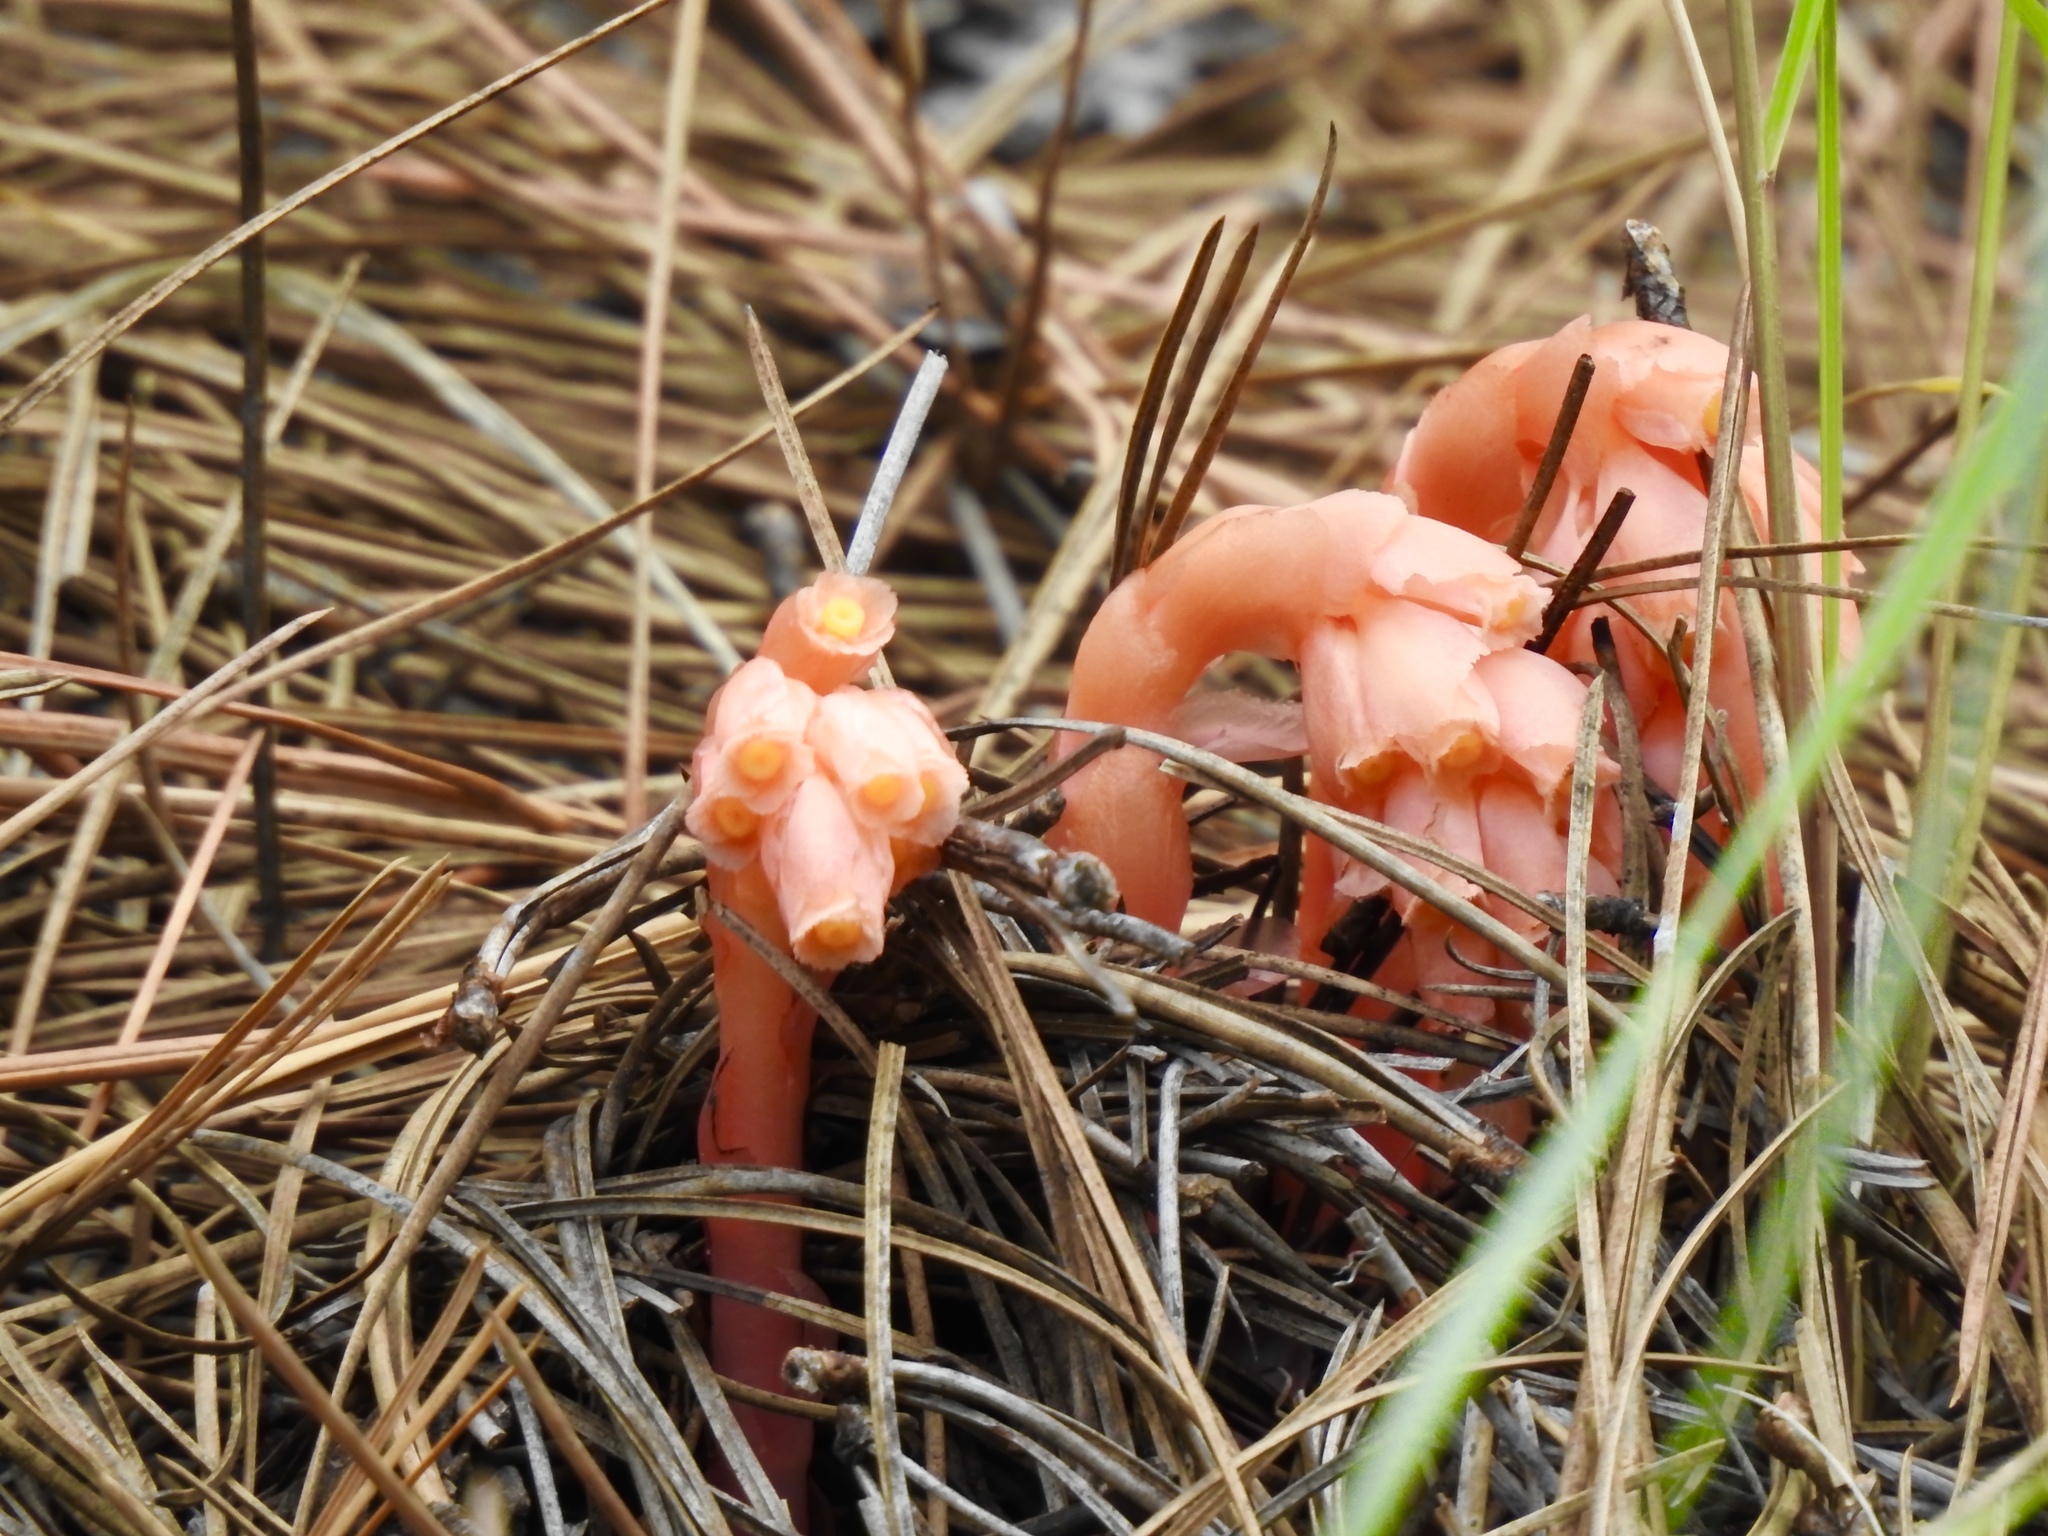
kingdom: Plantae
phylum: Tracheophyta
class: Magnoliopsida
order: Ericales
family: Ericaceae
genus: Hypopitys
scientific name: Hypopitys monotropa
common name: Yellow bird's-nest
